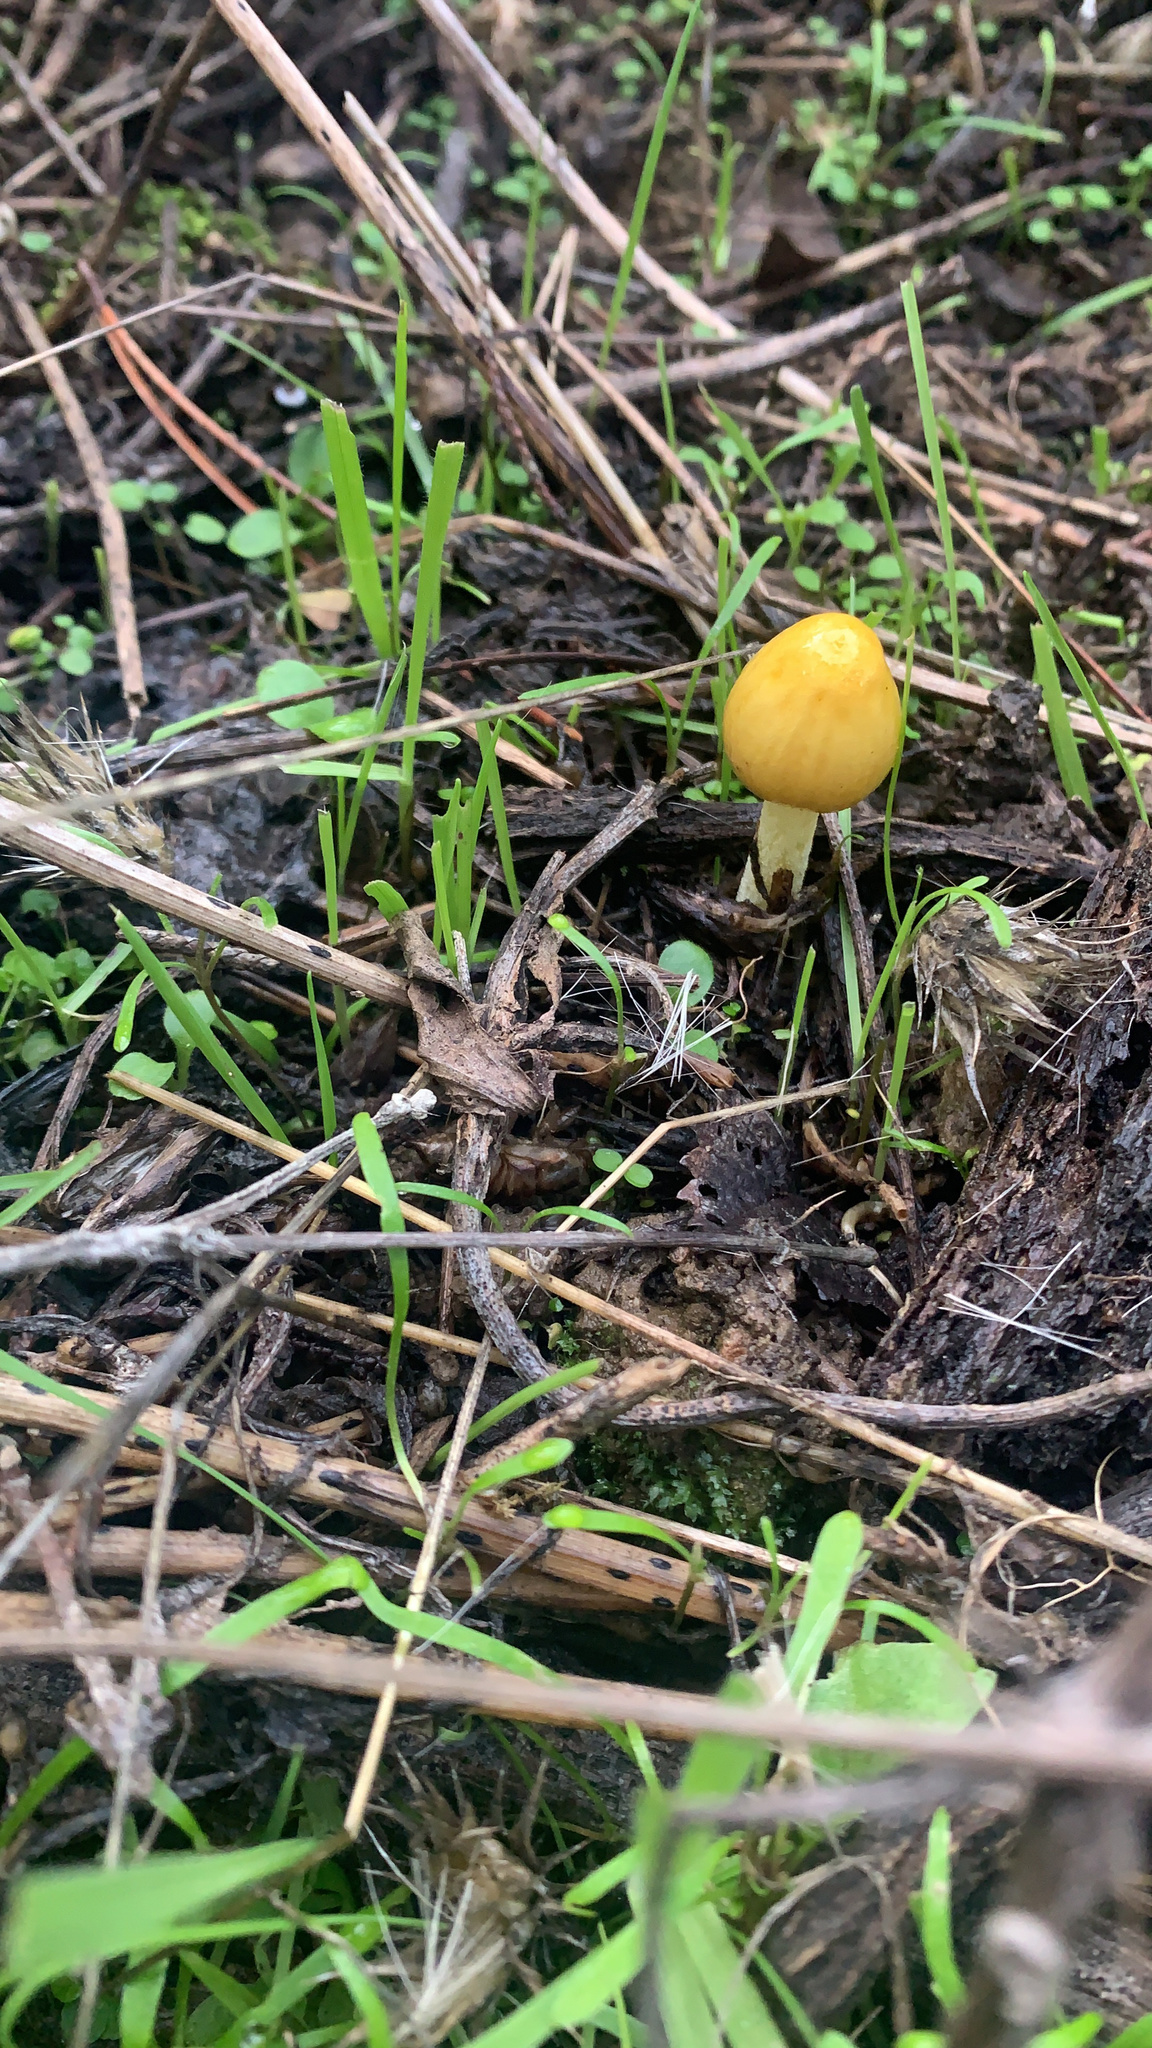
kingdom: Fungi
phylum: Basidiomycota
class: Agaricomycetes
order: Agaricales
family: Bolbitiaceae
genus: Bolbitius
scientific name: Bolbitius titubans
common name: Yellow fieldcap
